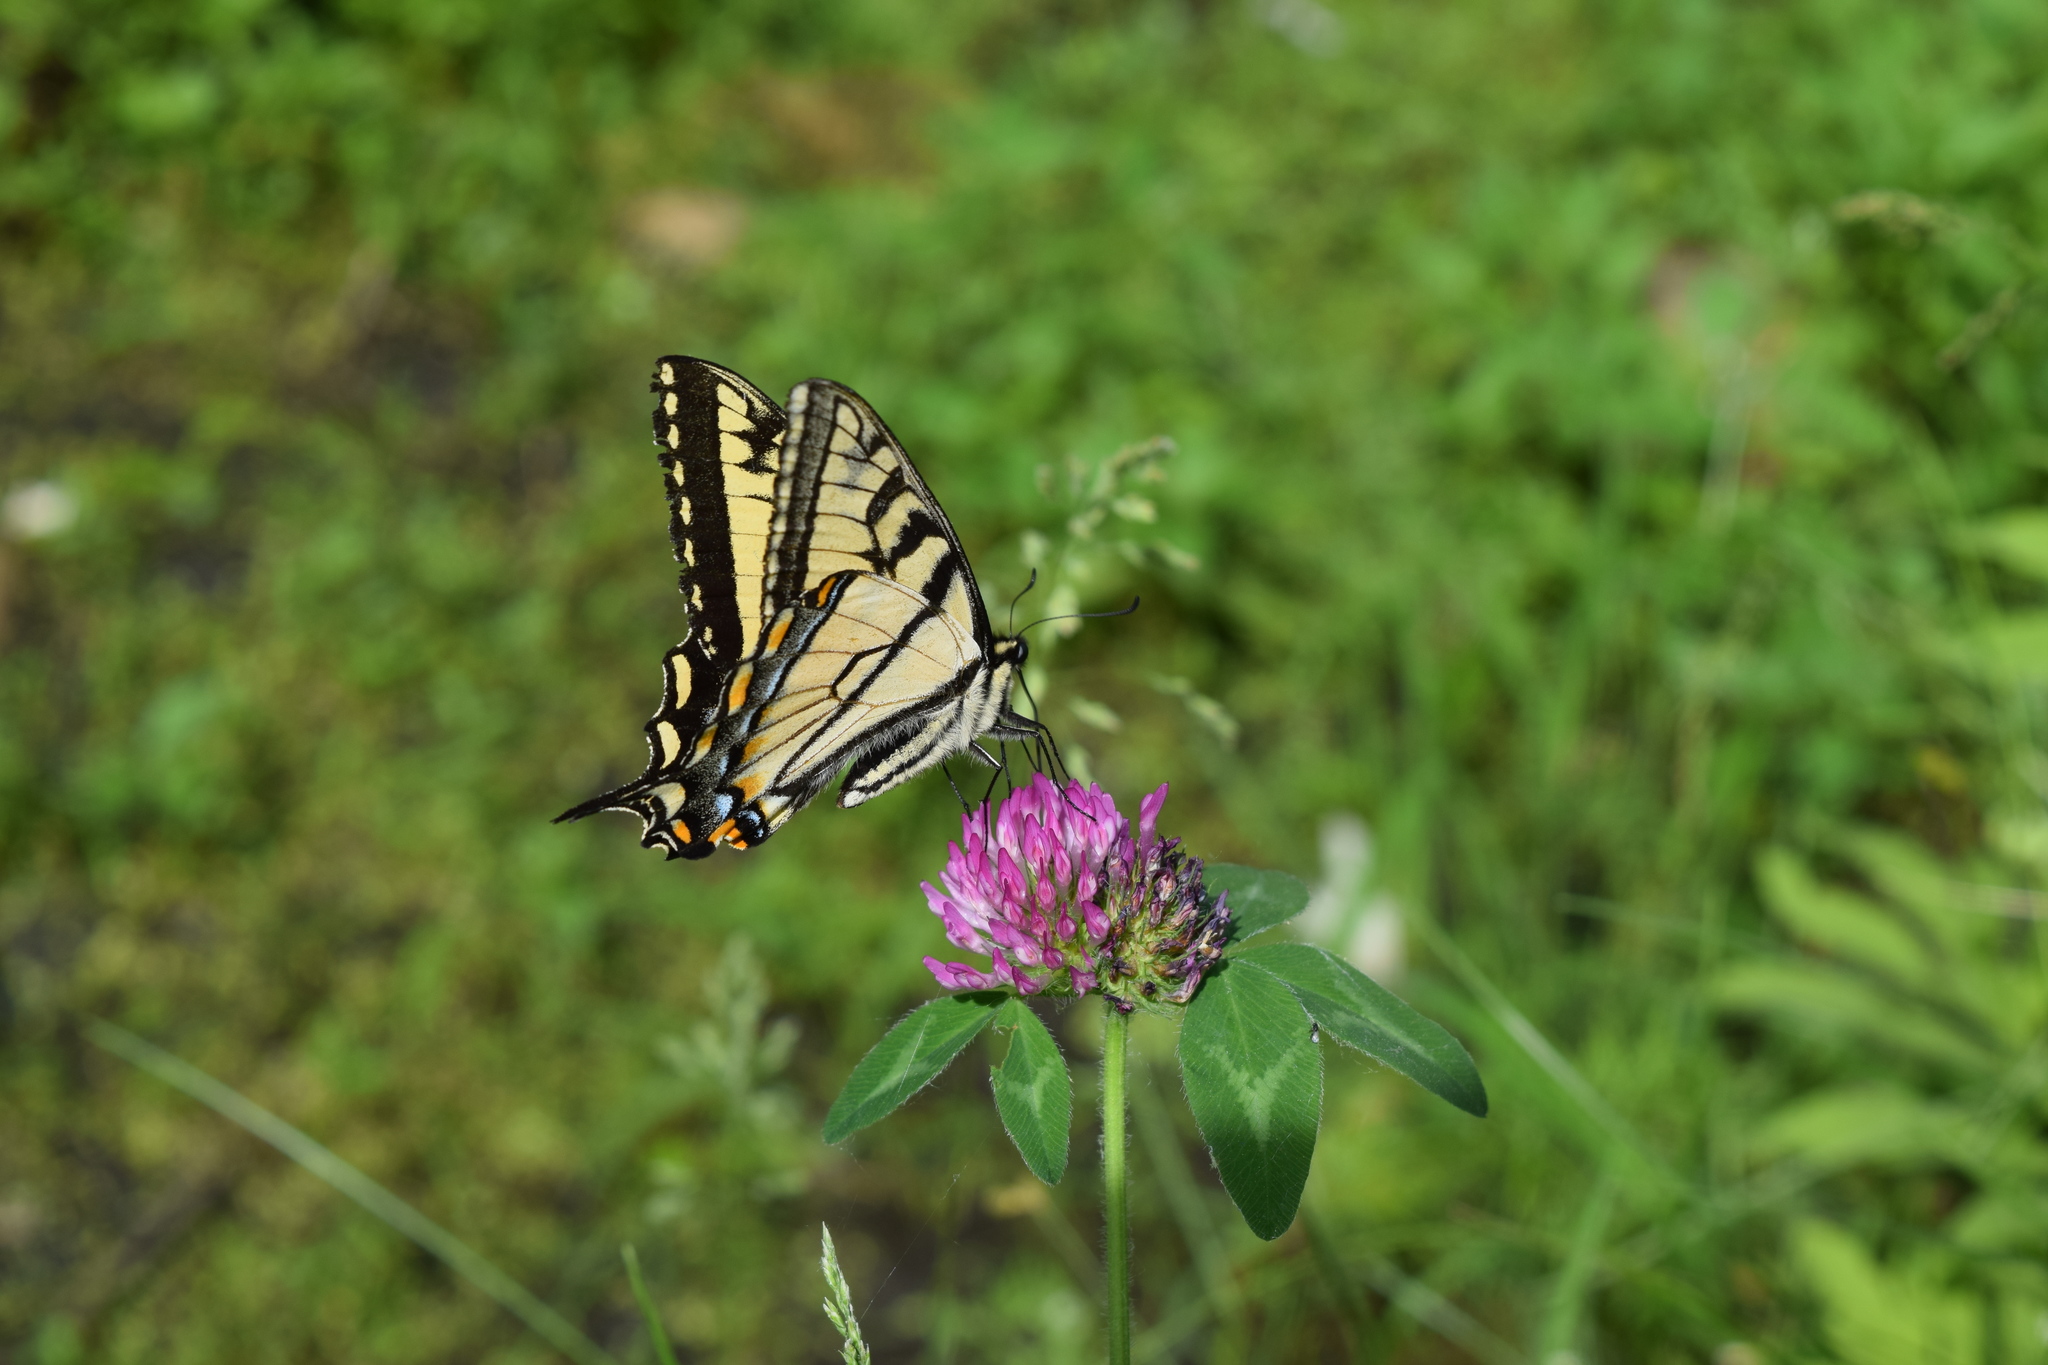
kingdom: Animalia
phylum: Arthropoda
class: Insecta
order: Lepidoptera
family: Papilionidae
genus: Papilio
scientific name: Papilio canadensis
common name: Canadian tiger swallowtail
